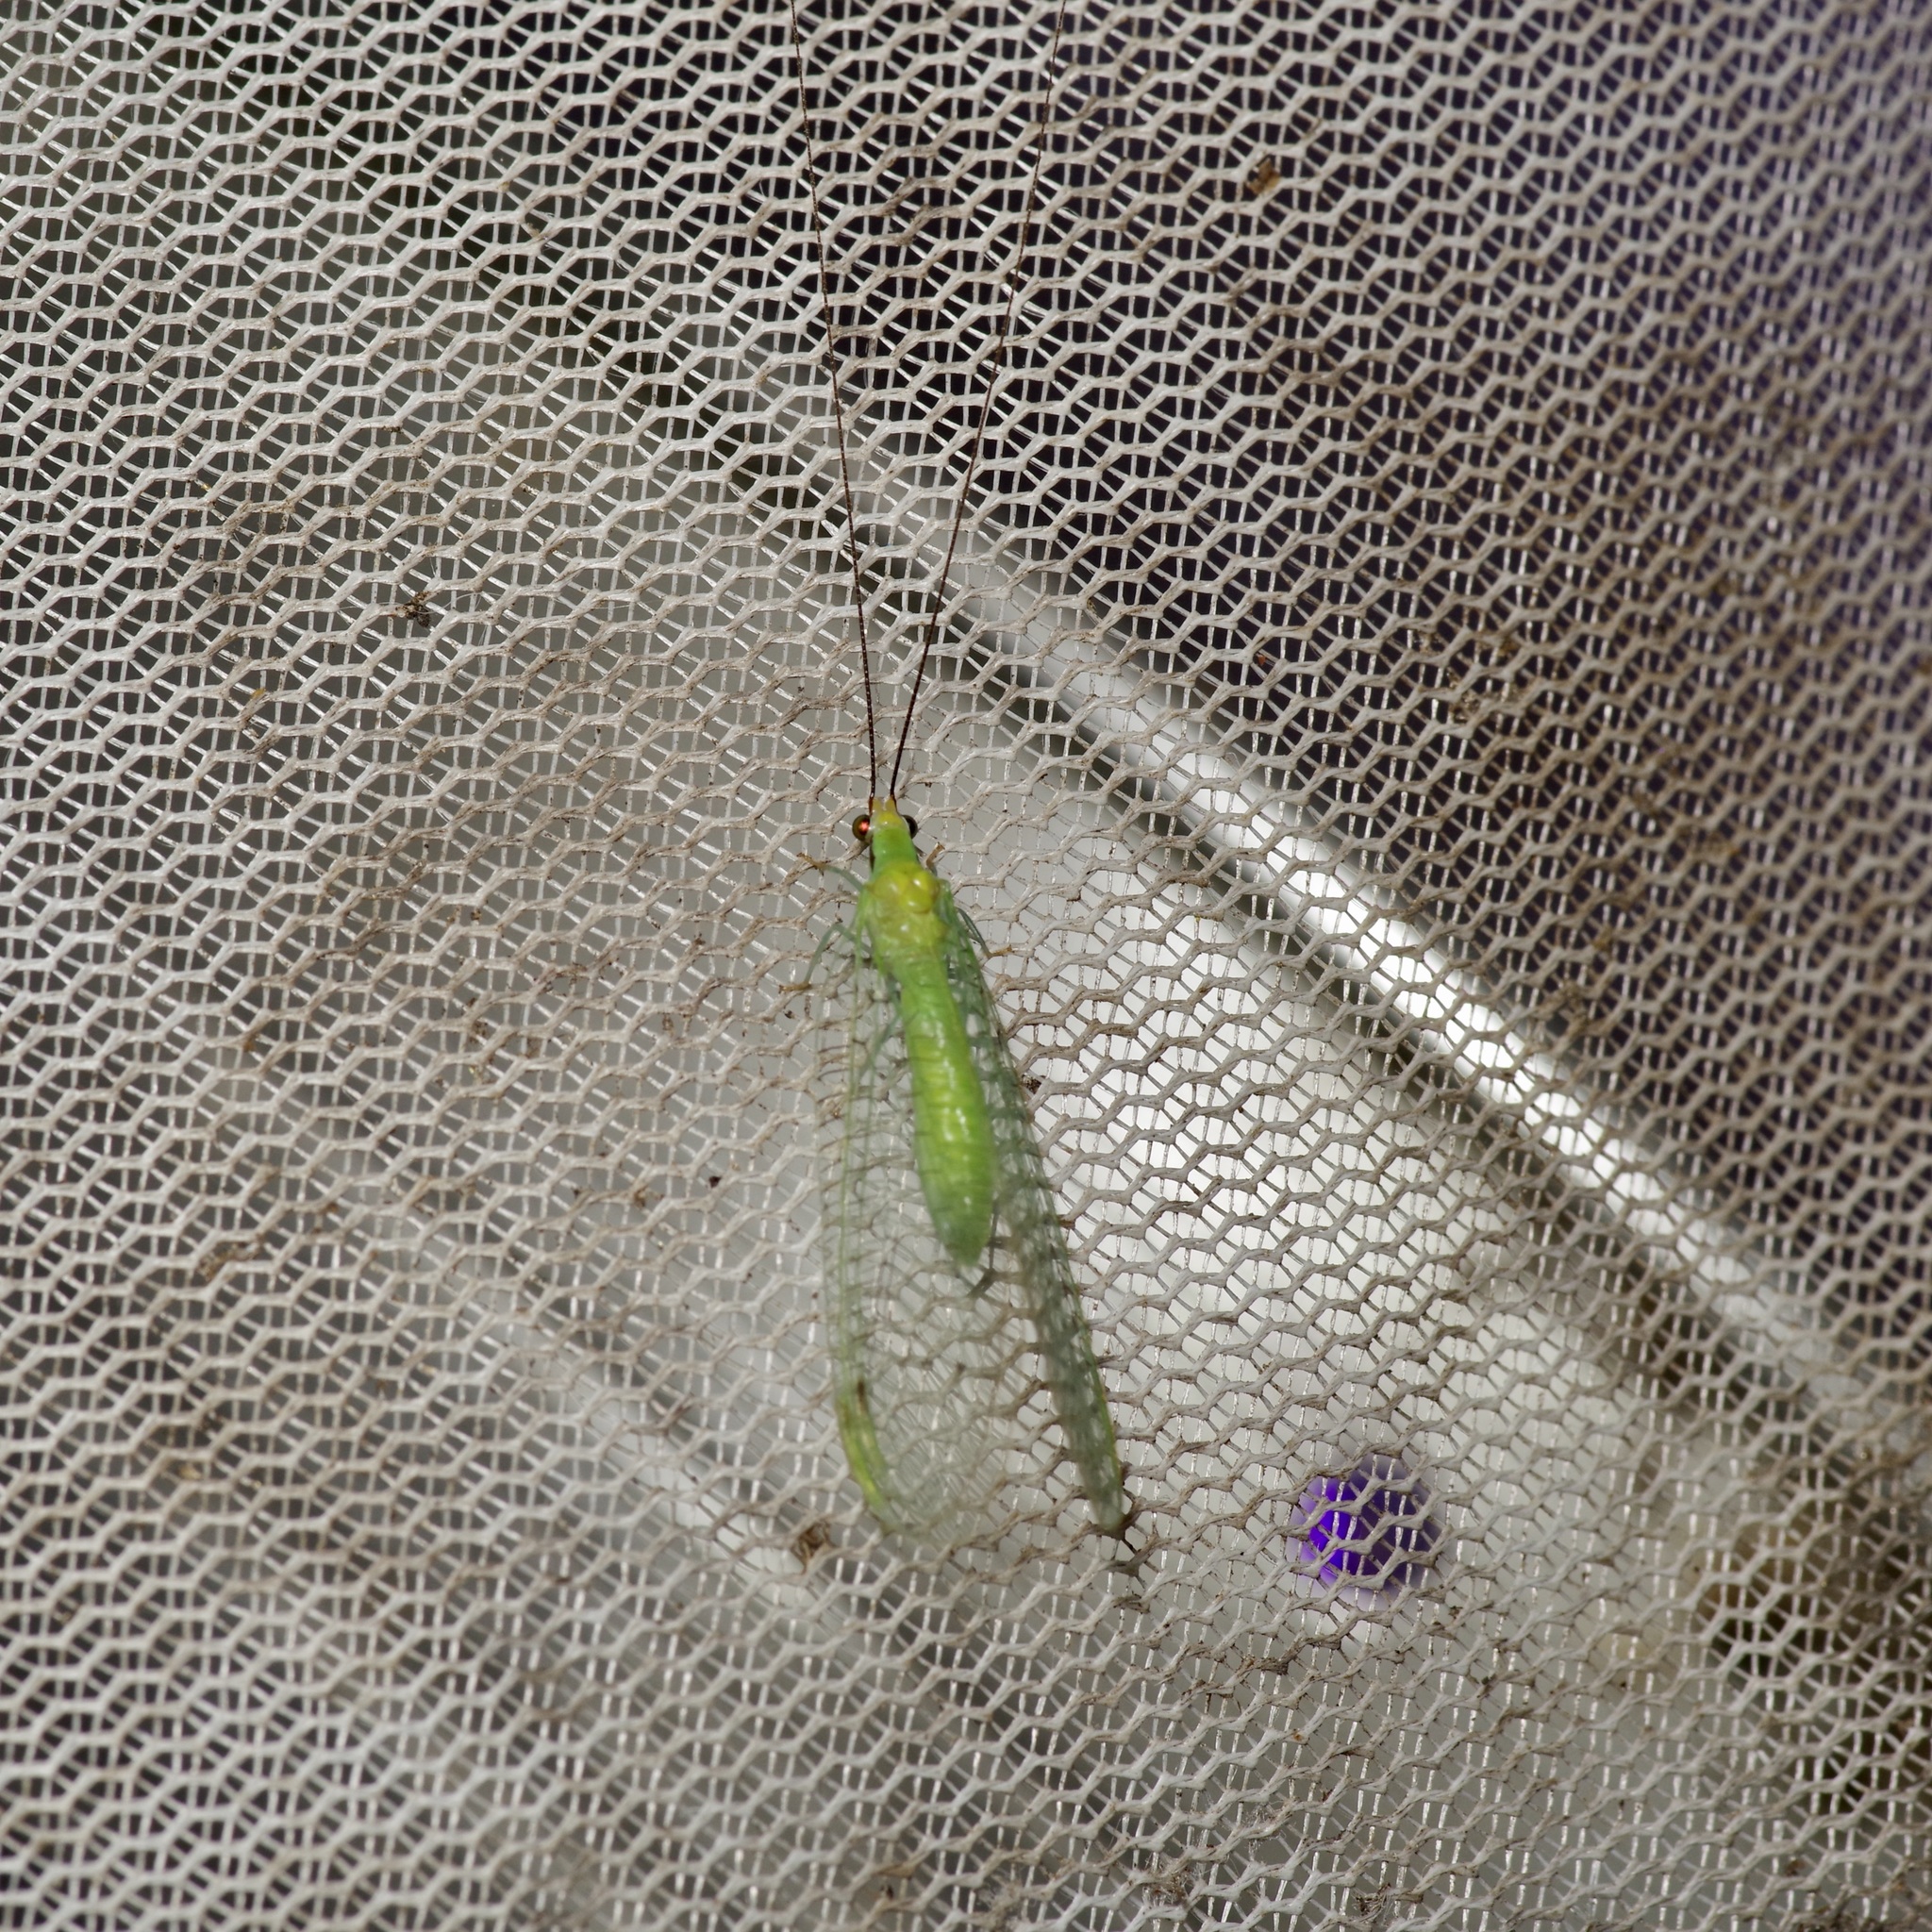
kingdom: Animalia
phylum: Arthropoda
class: Insecta
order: Neuroptera
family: Chrysopidae
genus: Leucochrysa
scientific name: Leucochrysa pavida
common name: Lichen-carrying green lacewing
